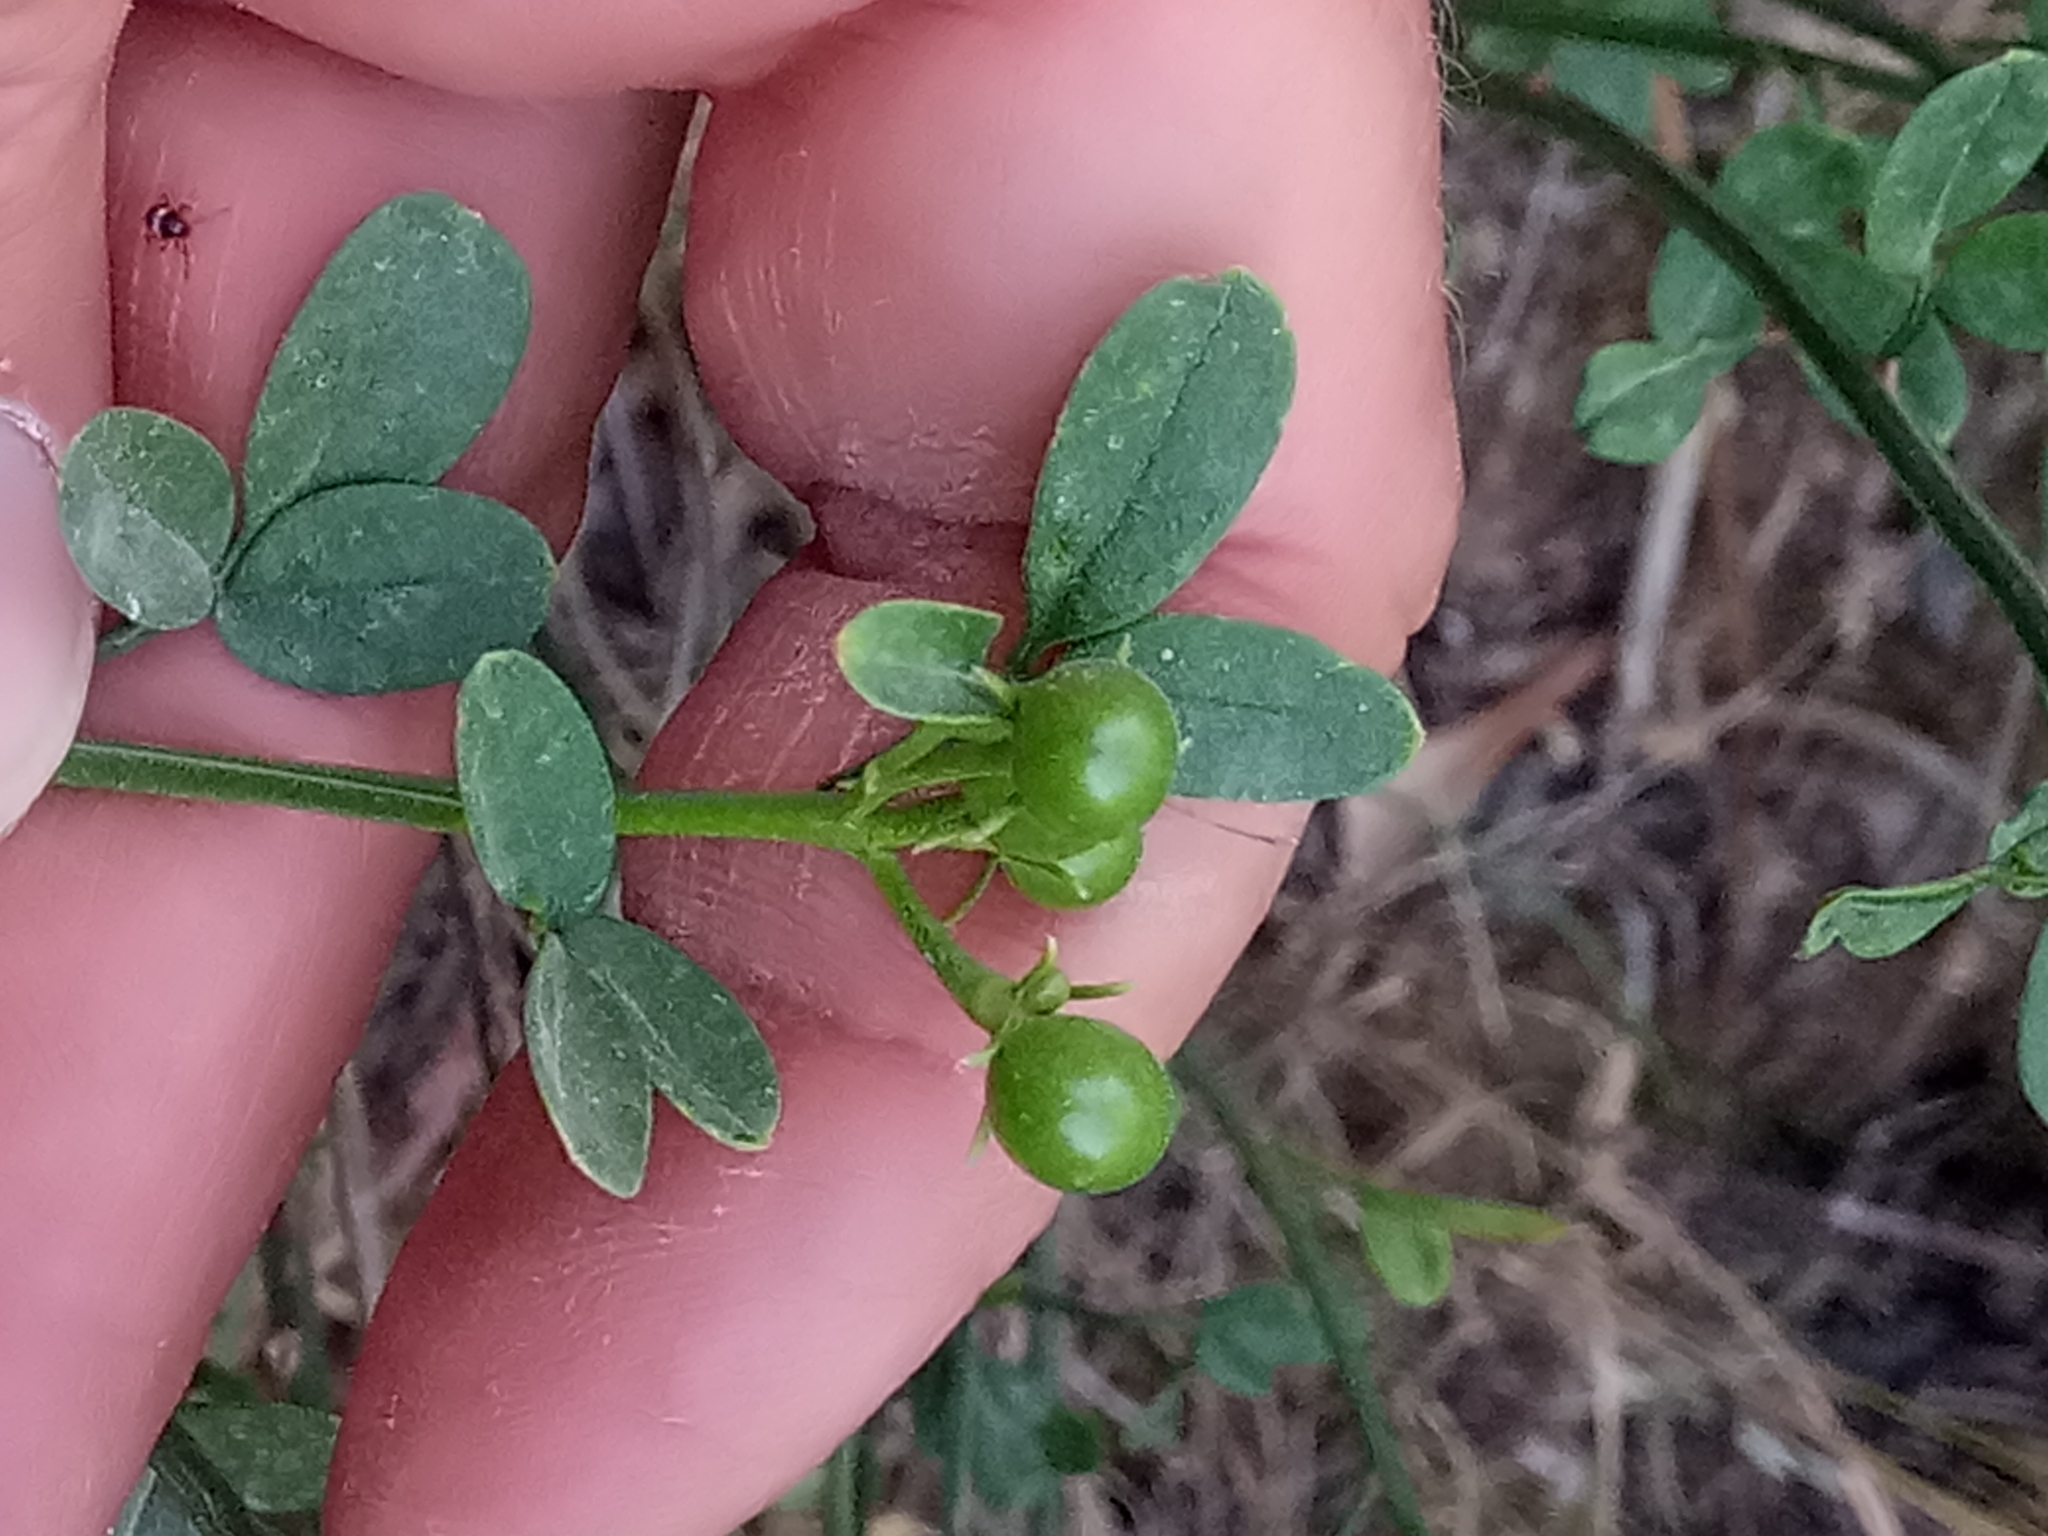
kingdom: Plantae
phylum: Tracheophyta
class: Magnoliopsida
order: Lamiales
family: Oleaceae
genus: Chrysojasminum
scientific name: Chrysojasminum fruticans
